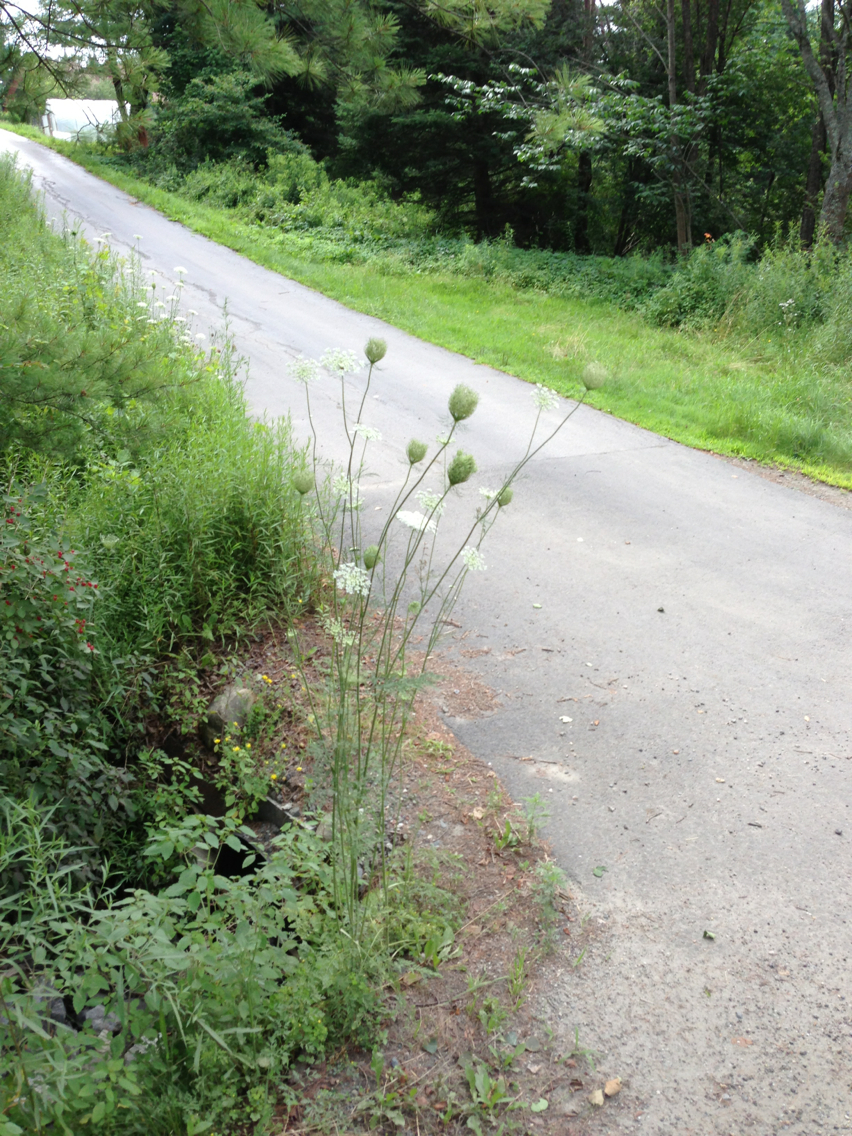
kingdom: Plantae
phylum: Tracheophyta
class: Magnoliopsida
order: Apiales
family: Apiaceae
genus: Daucus
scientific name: Daucus carota
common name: Wild carrot
